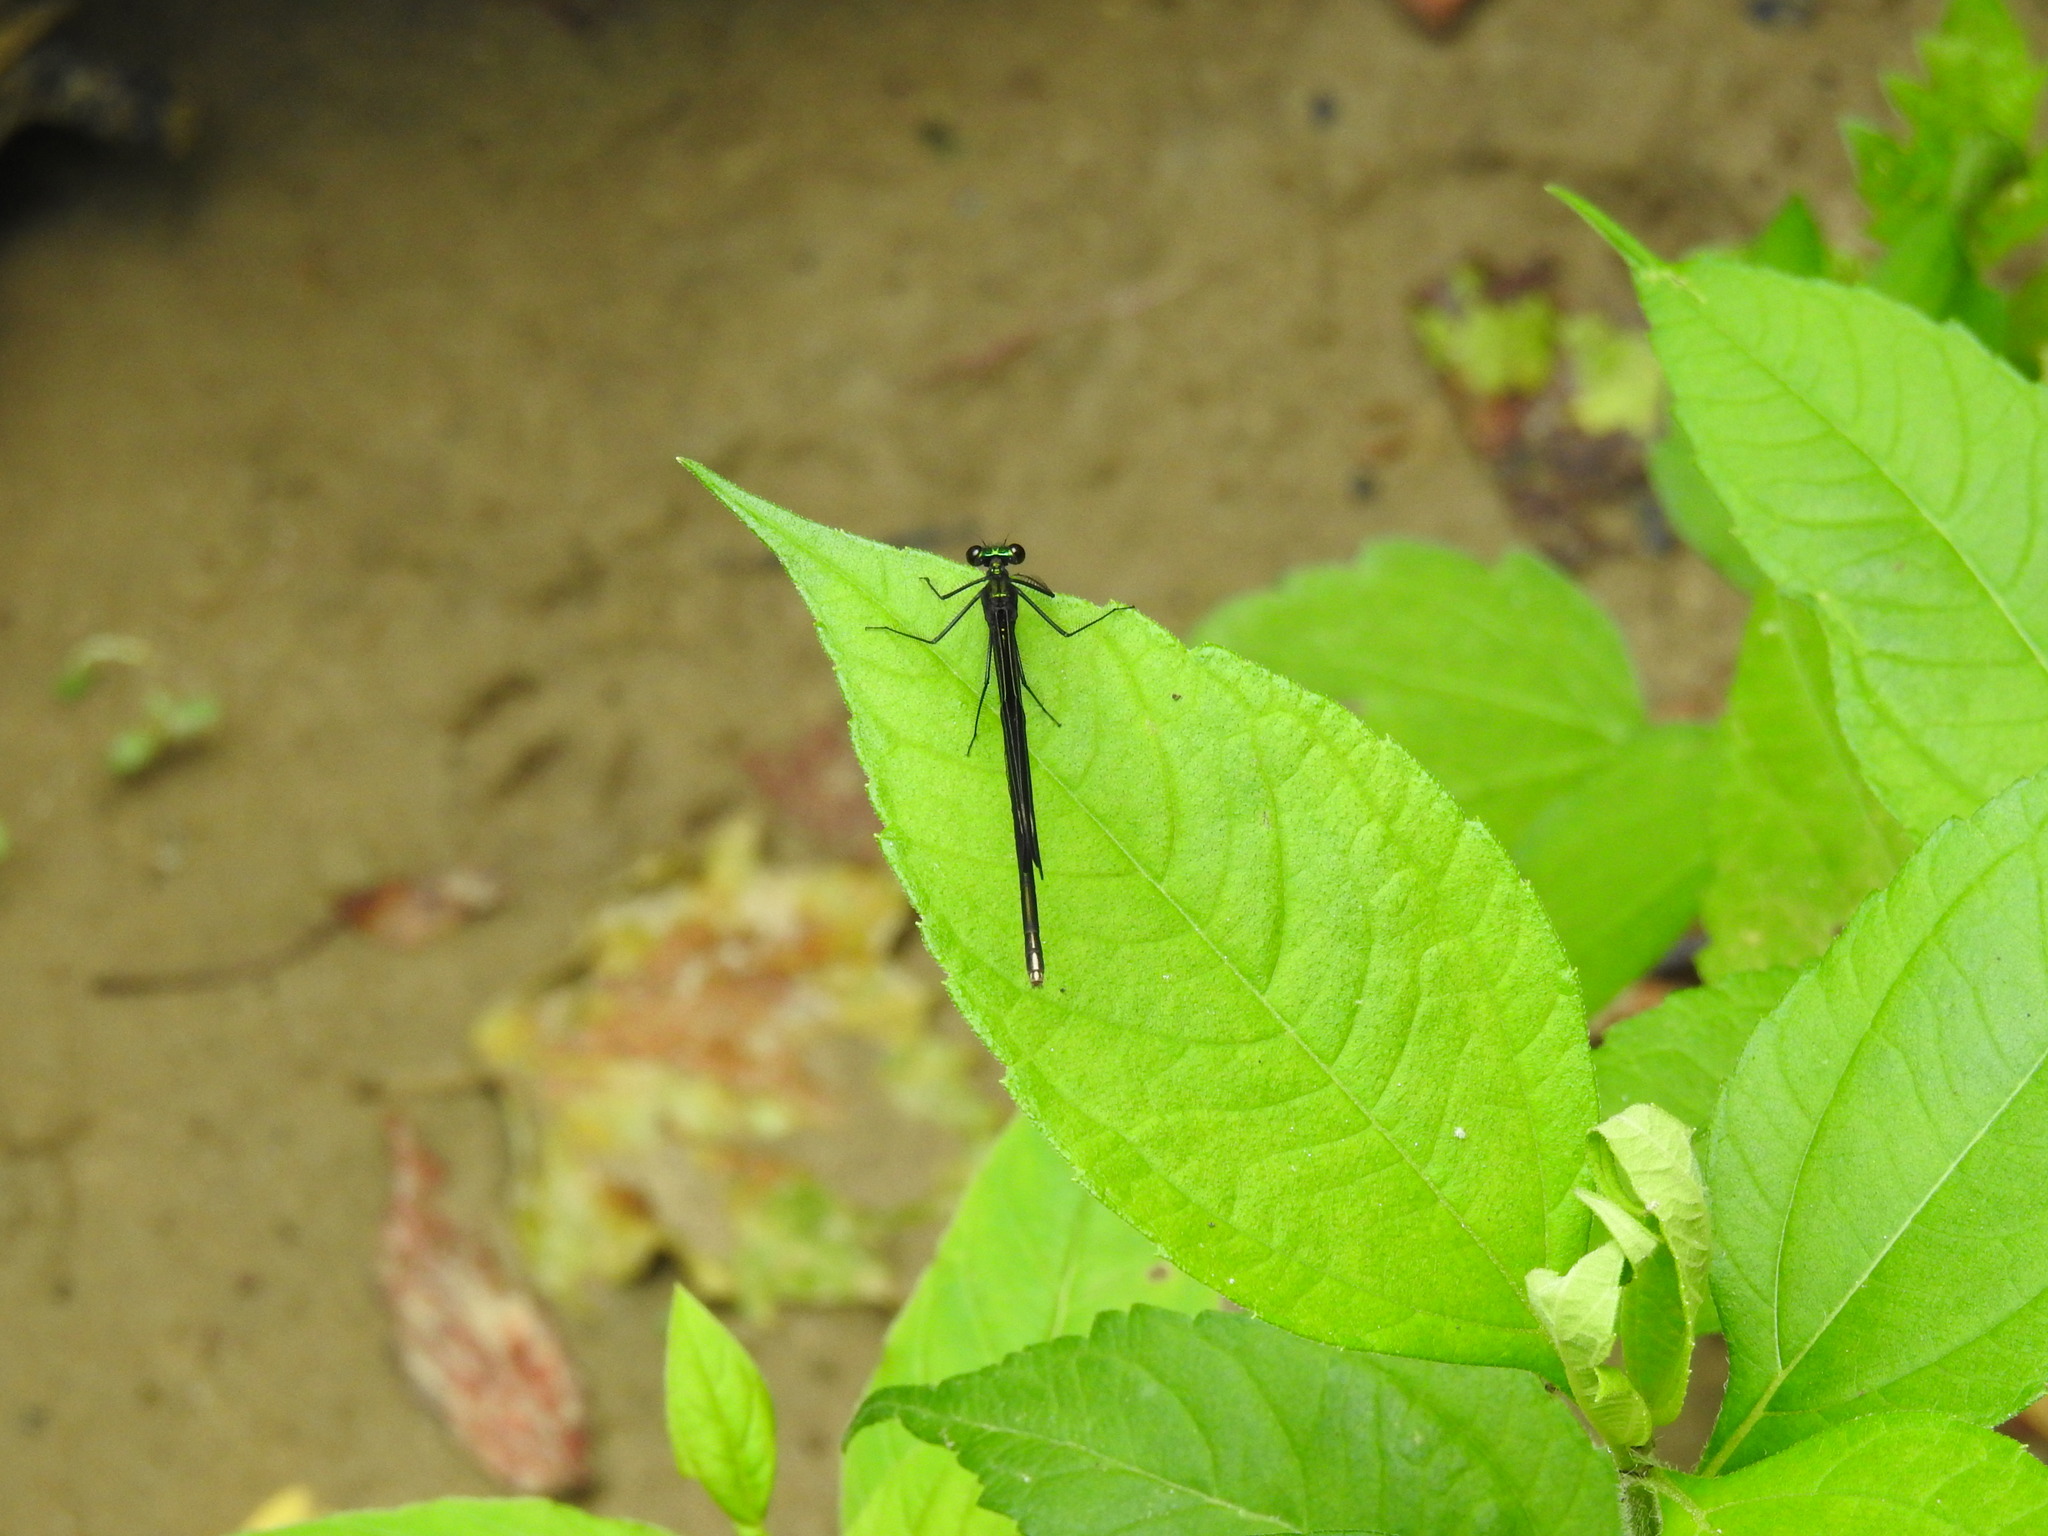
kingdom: Animalia
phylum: Arthropoda
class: Insecta
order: Odonata
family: Calopterygidae
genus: Calopteryx
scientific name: Calopteryx maculata
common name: Ebony jewelwing
